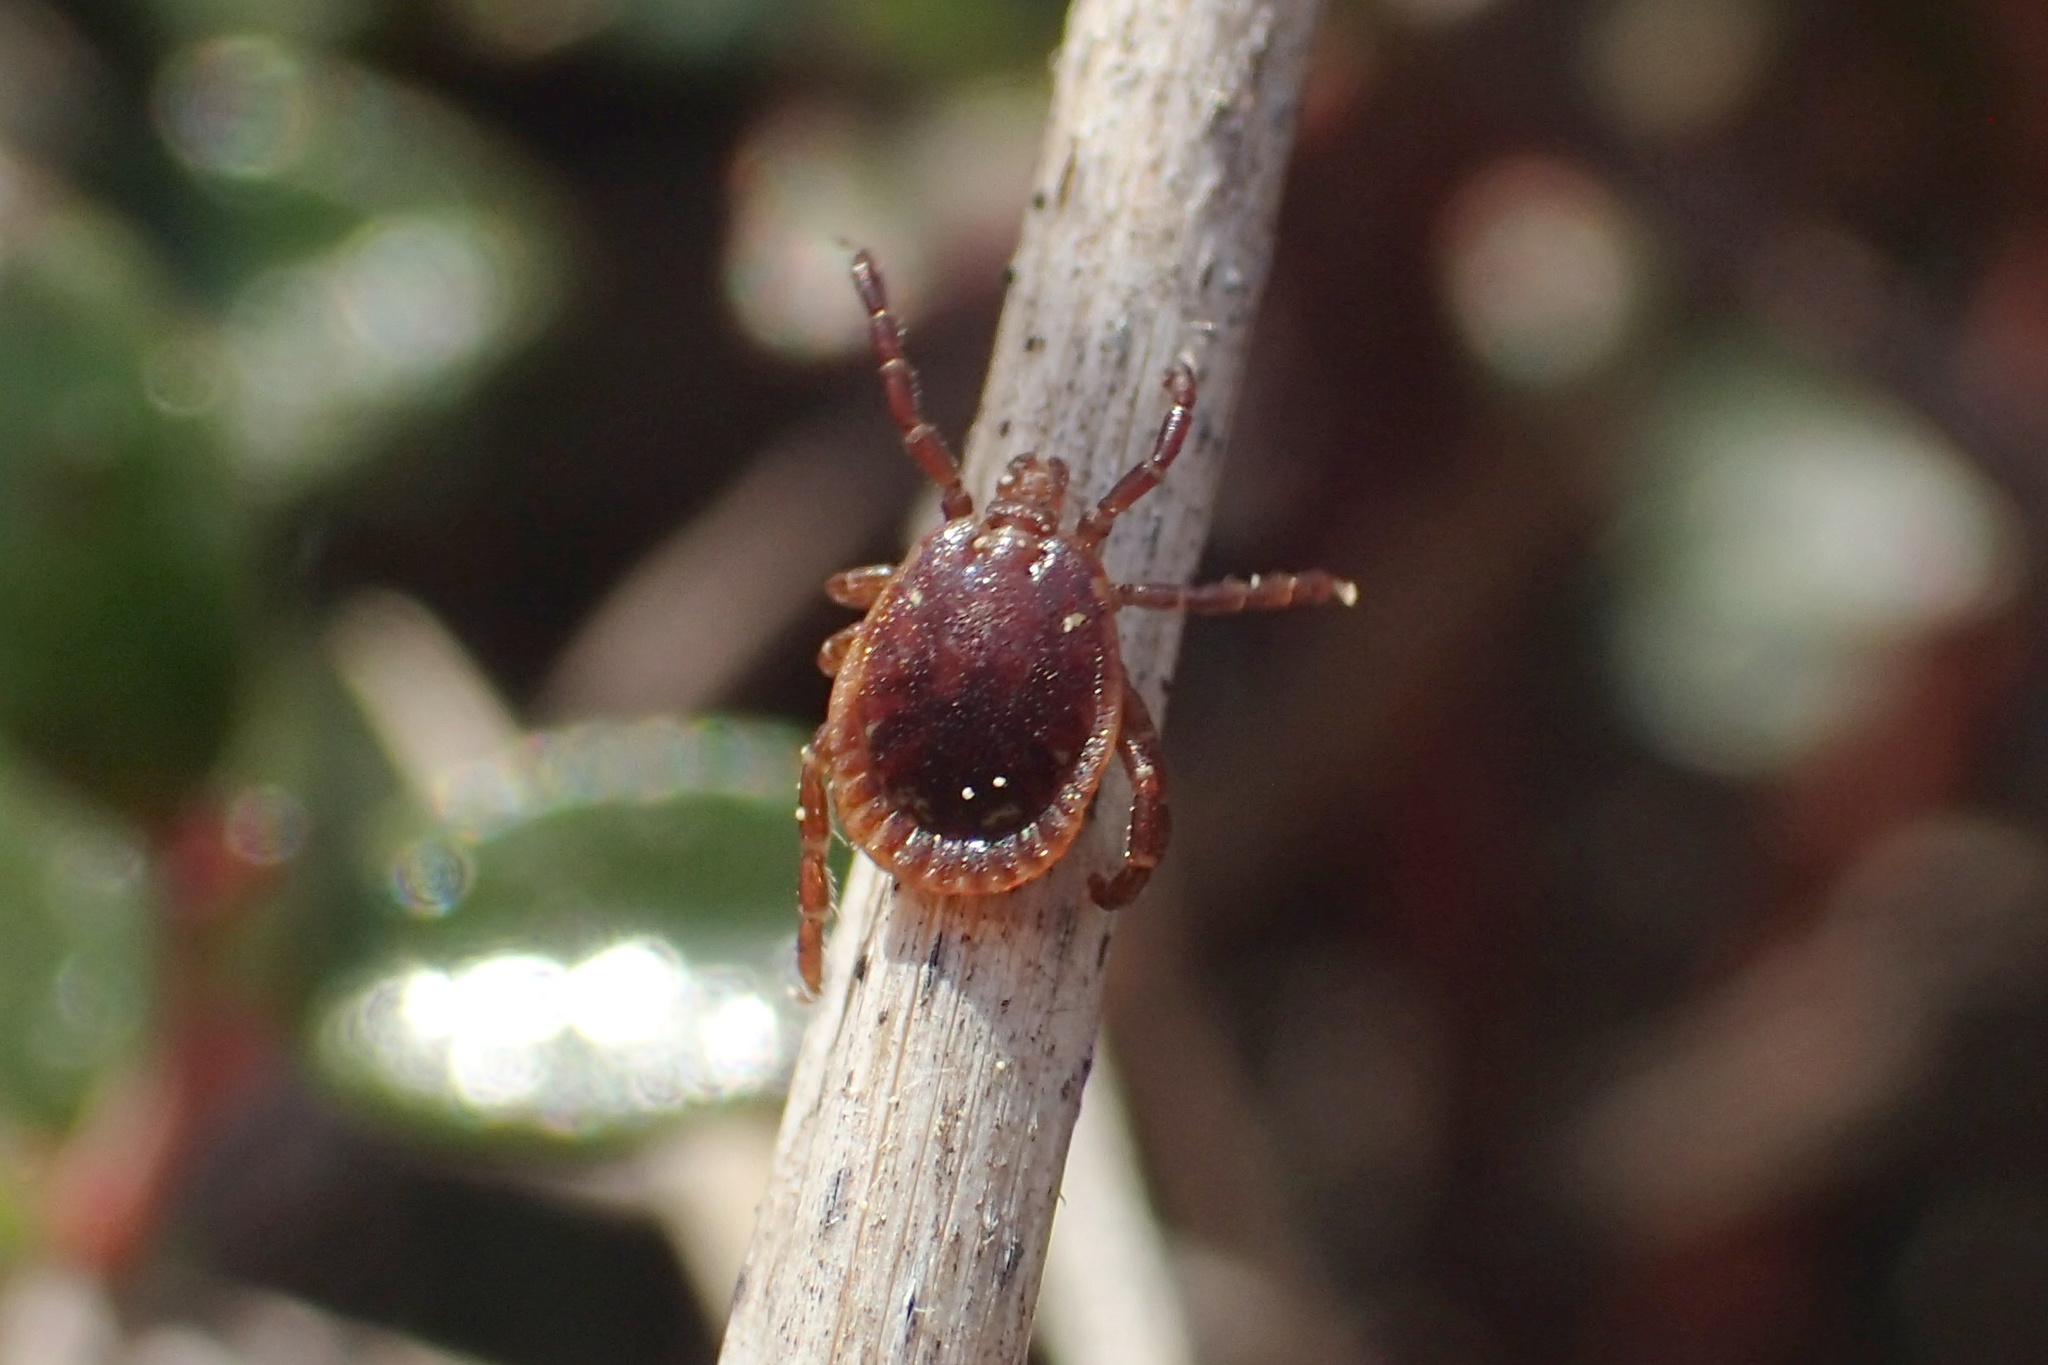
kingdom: Animalia
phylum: Arthropoda
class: Arachnida
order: Ixodida
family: Ixodidae
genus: Amblyomma
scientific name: Amblyomma americanum
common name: Lone star tick
